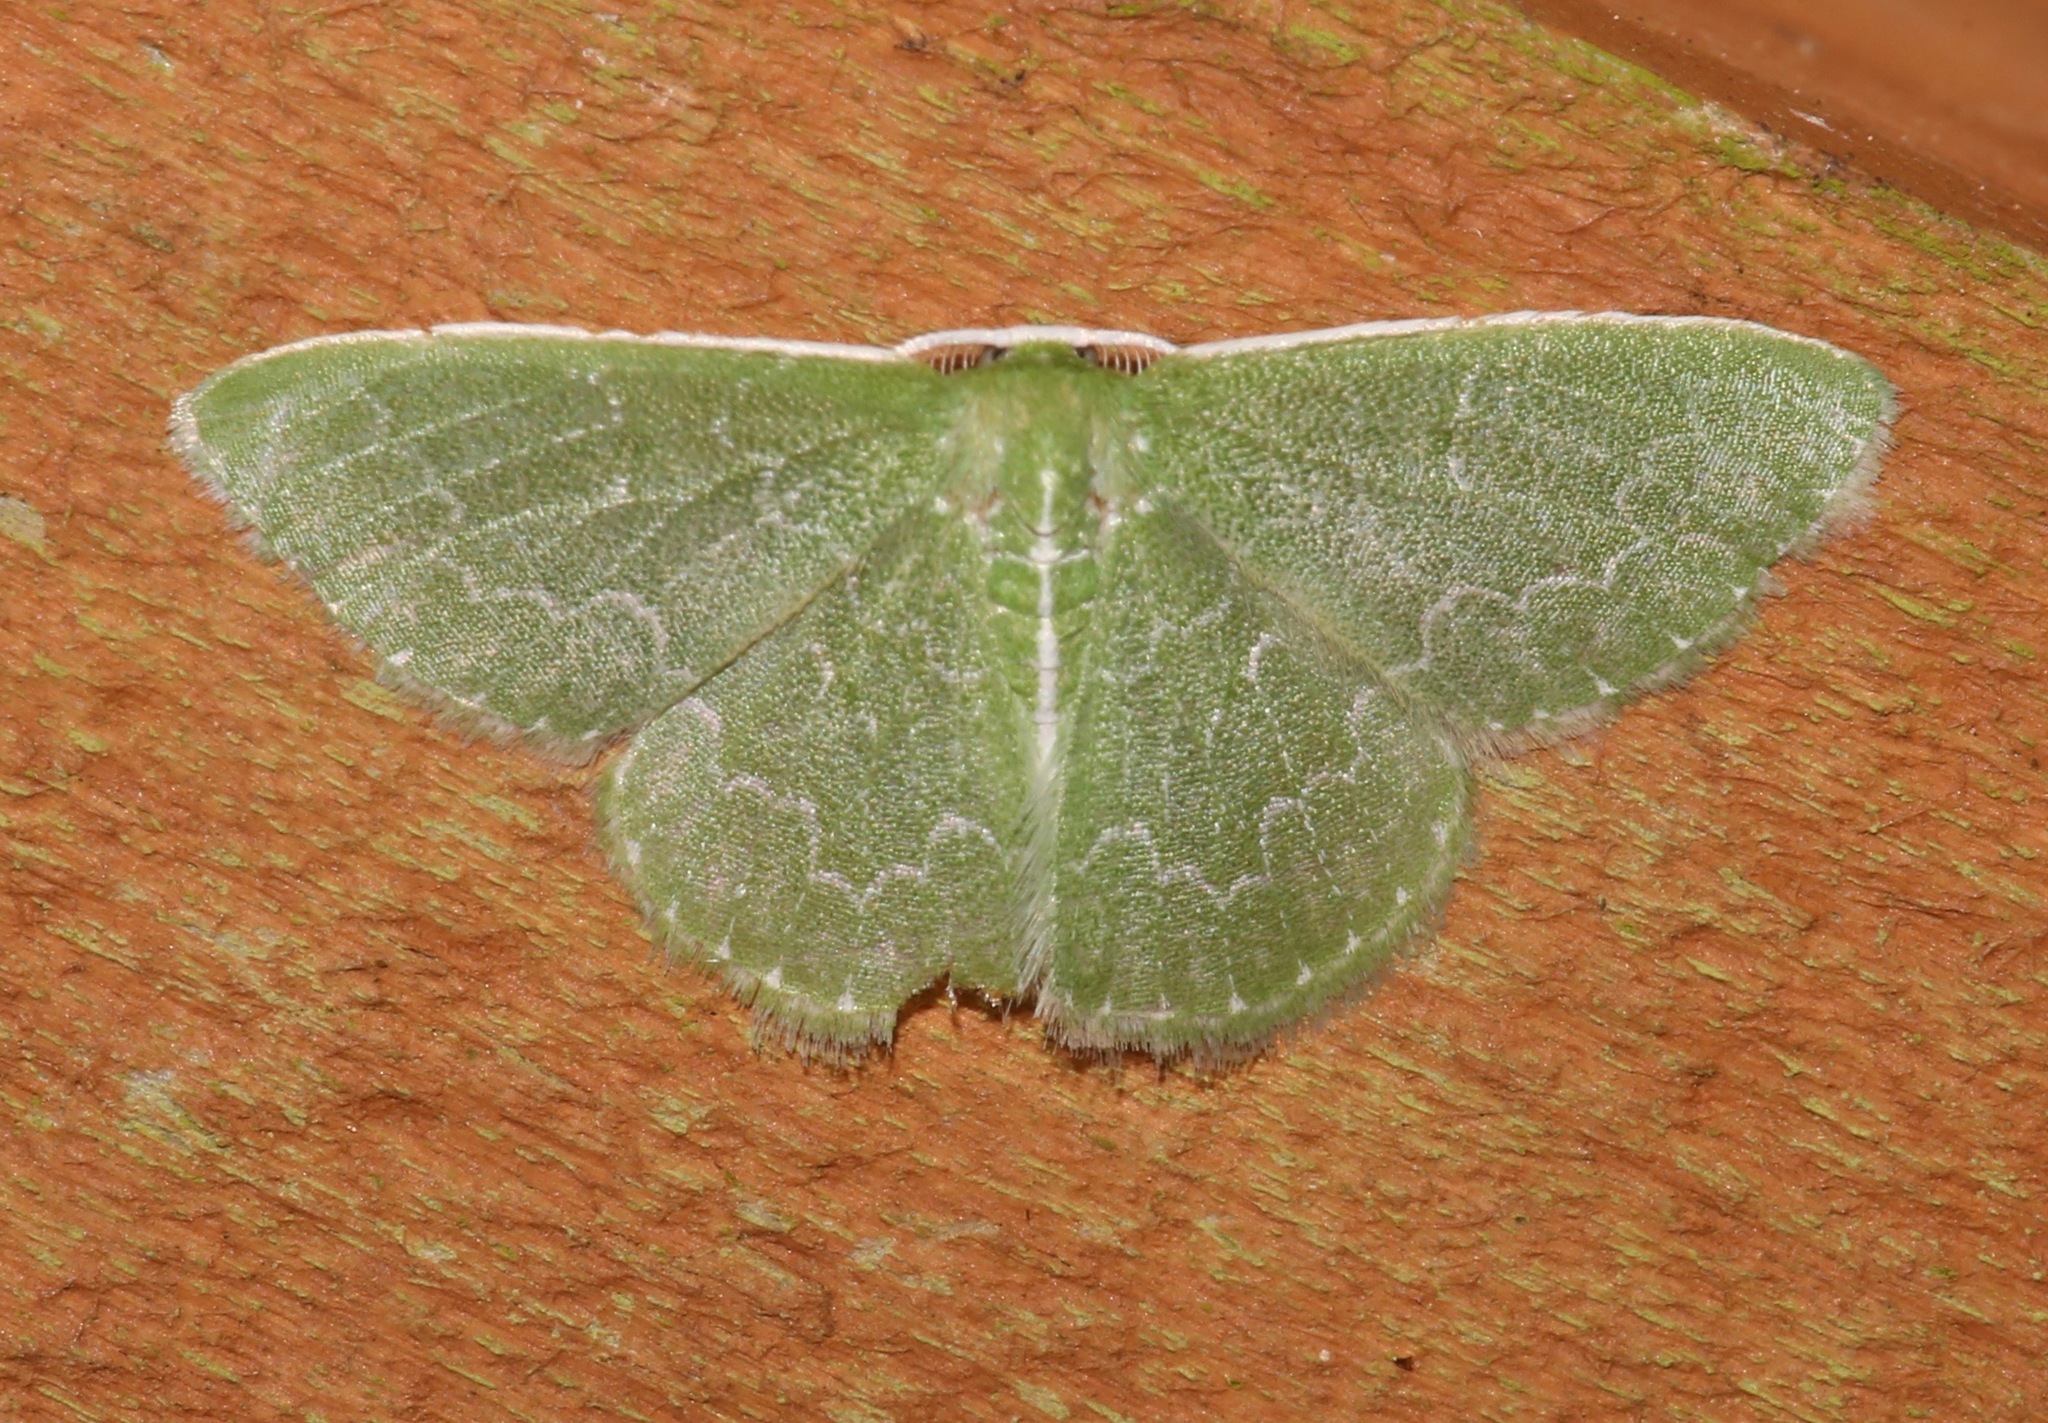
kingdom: Animalia
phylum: Arthropoda
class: Insecta
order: Lepidoptera
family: Geometridae
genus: Synchlora
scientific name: Synchlora frondaria
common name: Southern emerald
